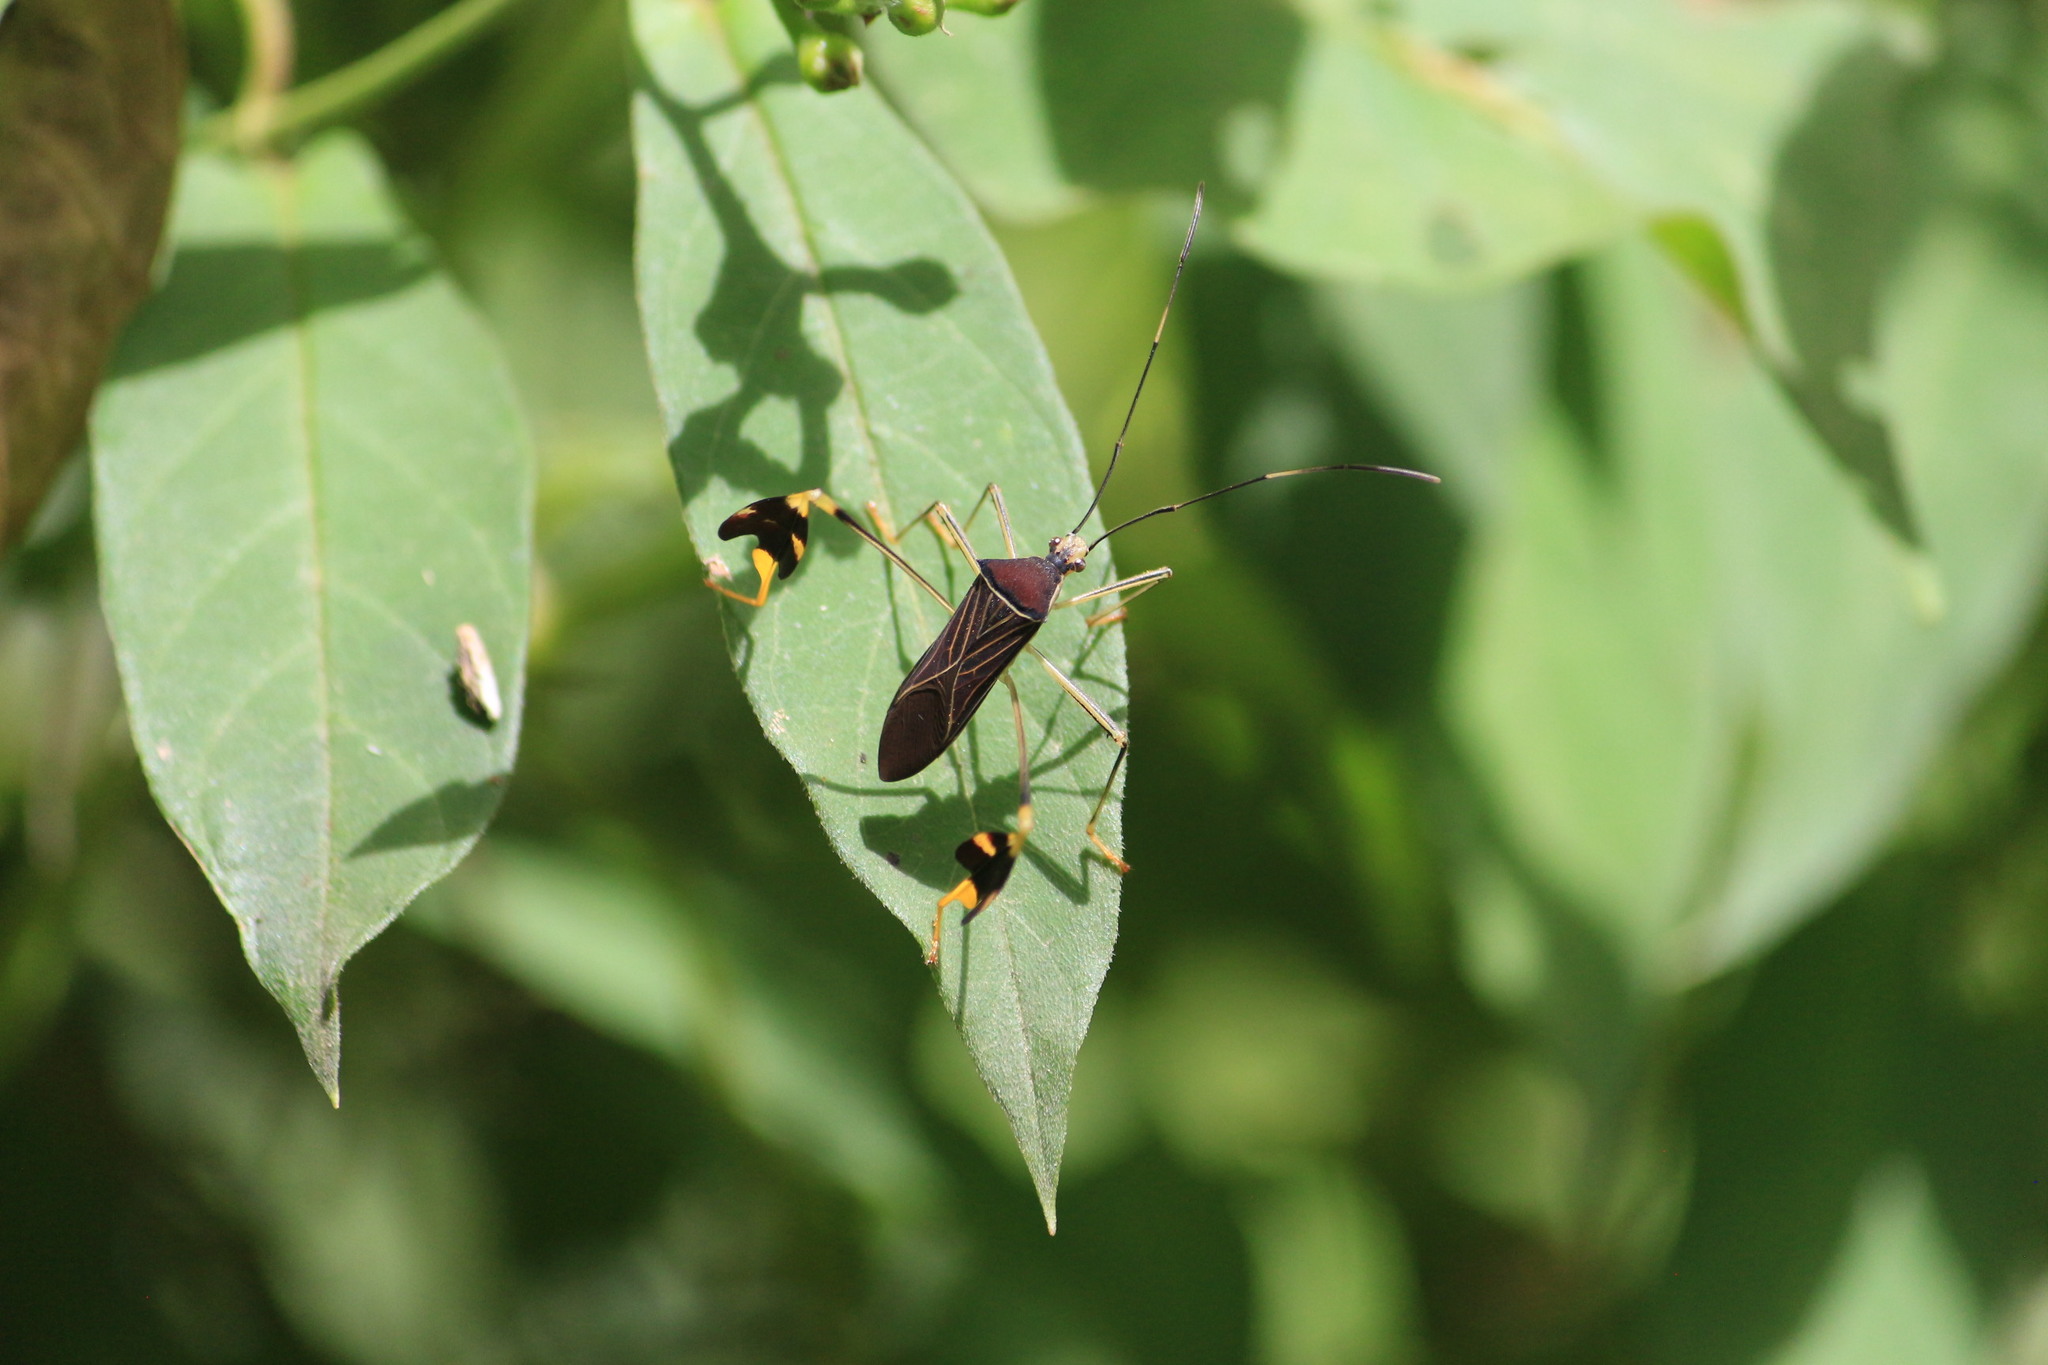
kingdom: Animalia
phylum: Arthropoda
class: Insecta
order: Hemiptera
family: Coreidae
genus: Anisoscelis
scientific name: Anisoscelis gradadius
